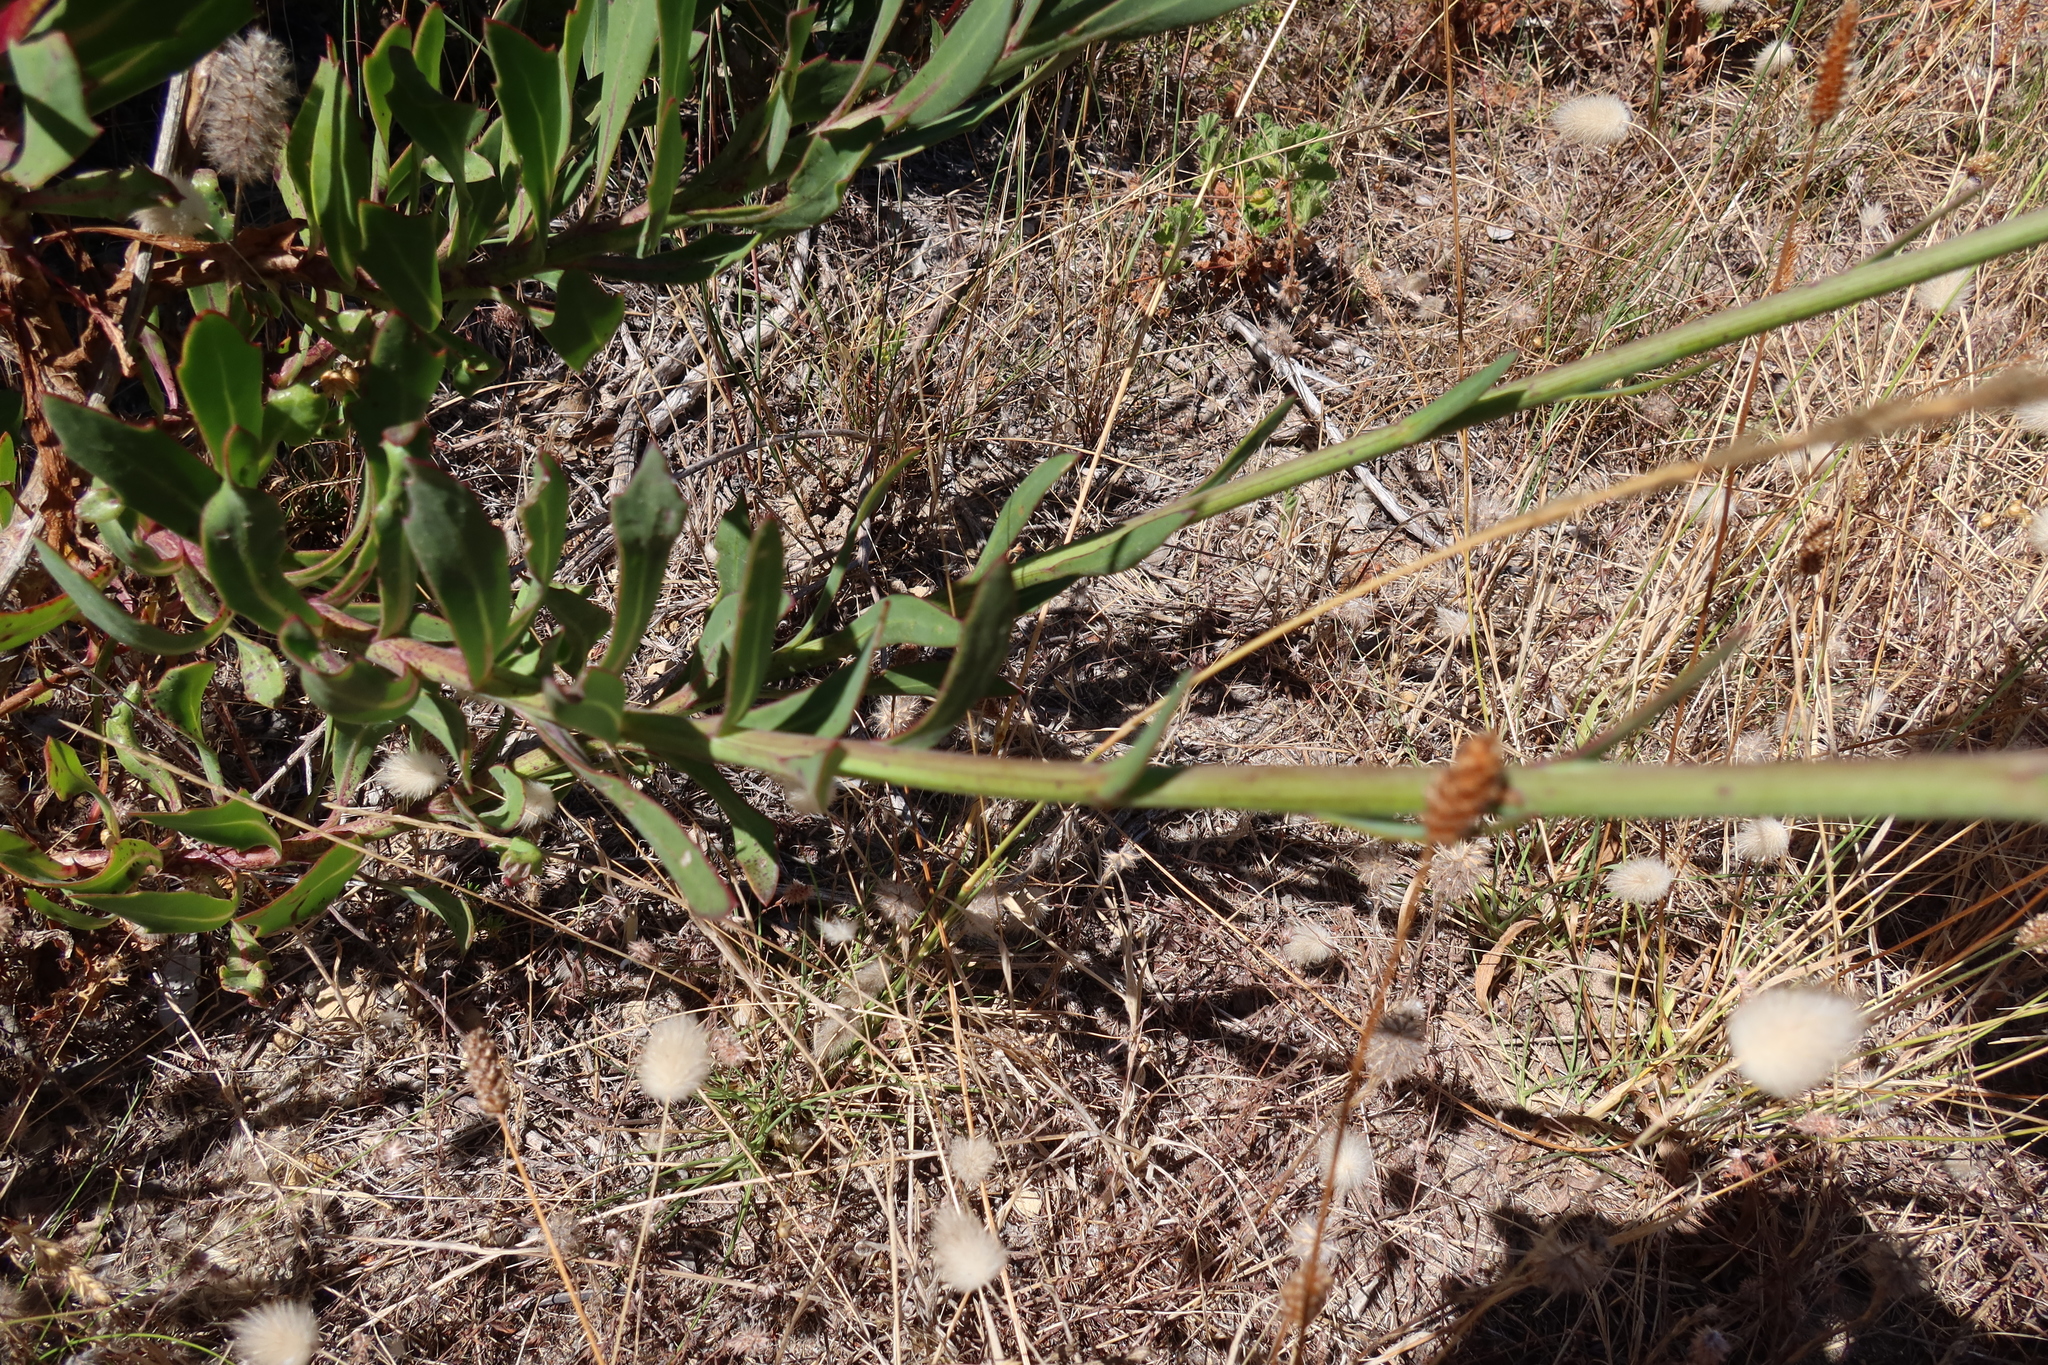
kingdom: Plantae
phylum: Tracheophyta
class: Magnoliopsida
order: Asterales
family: Asteraceae
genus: Othonna
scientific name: Othonna quinquedentata
